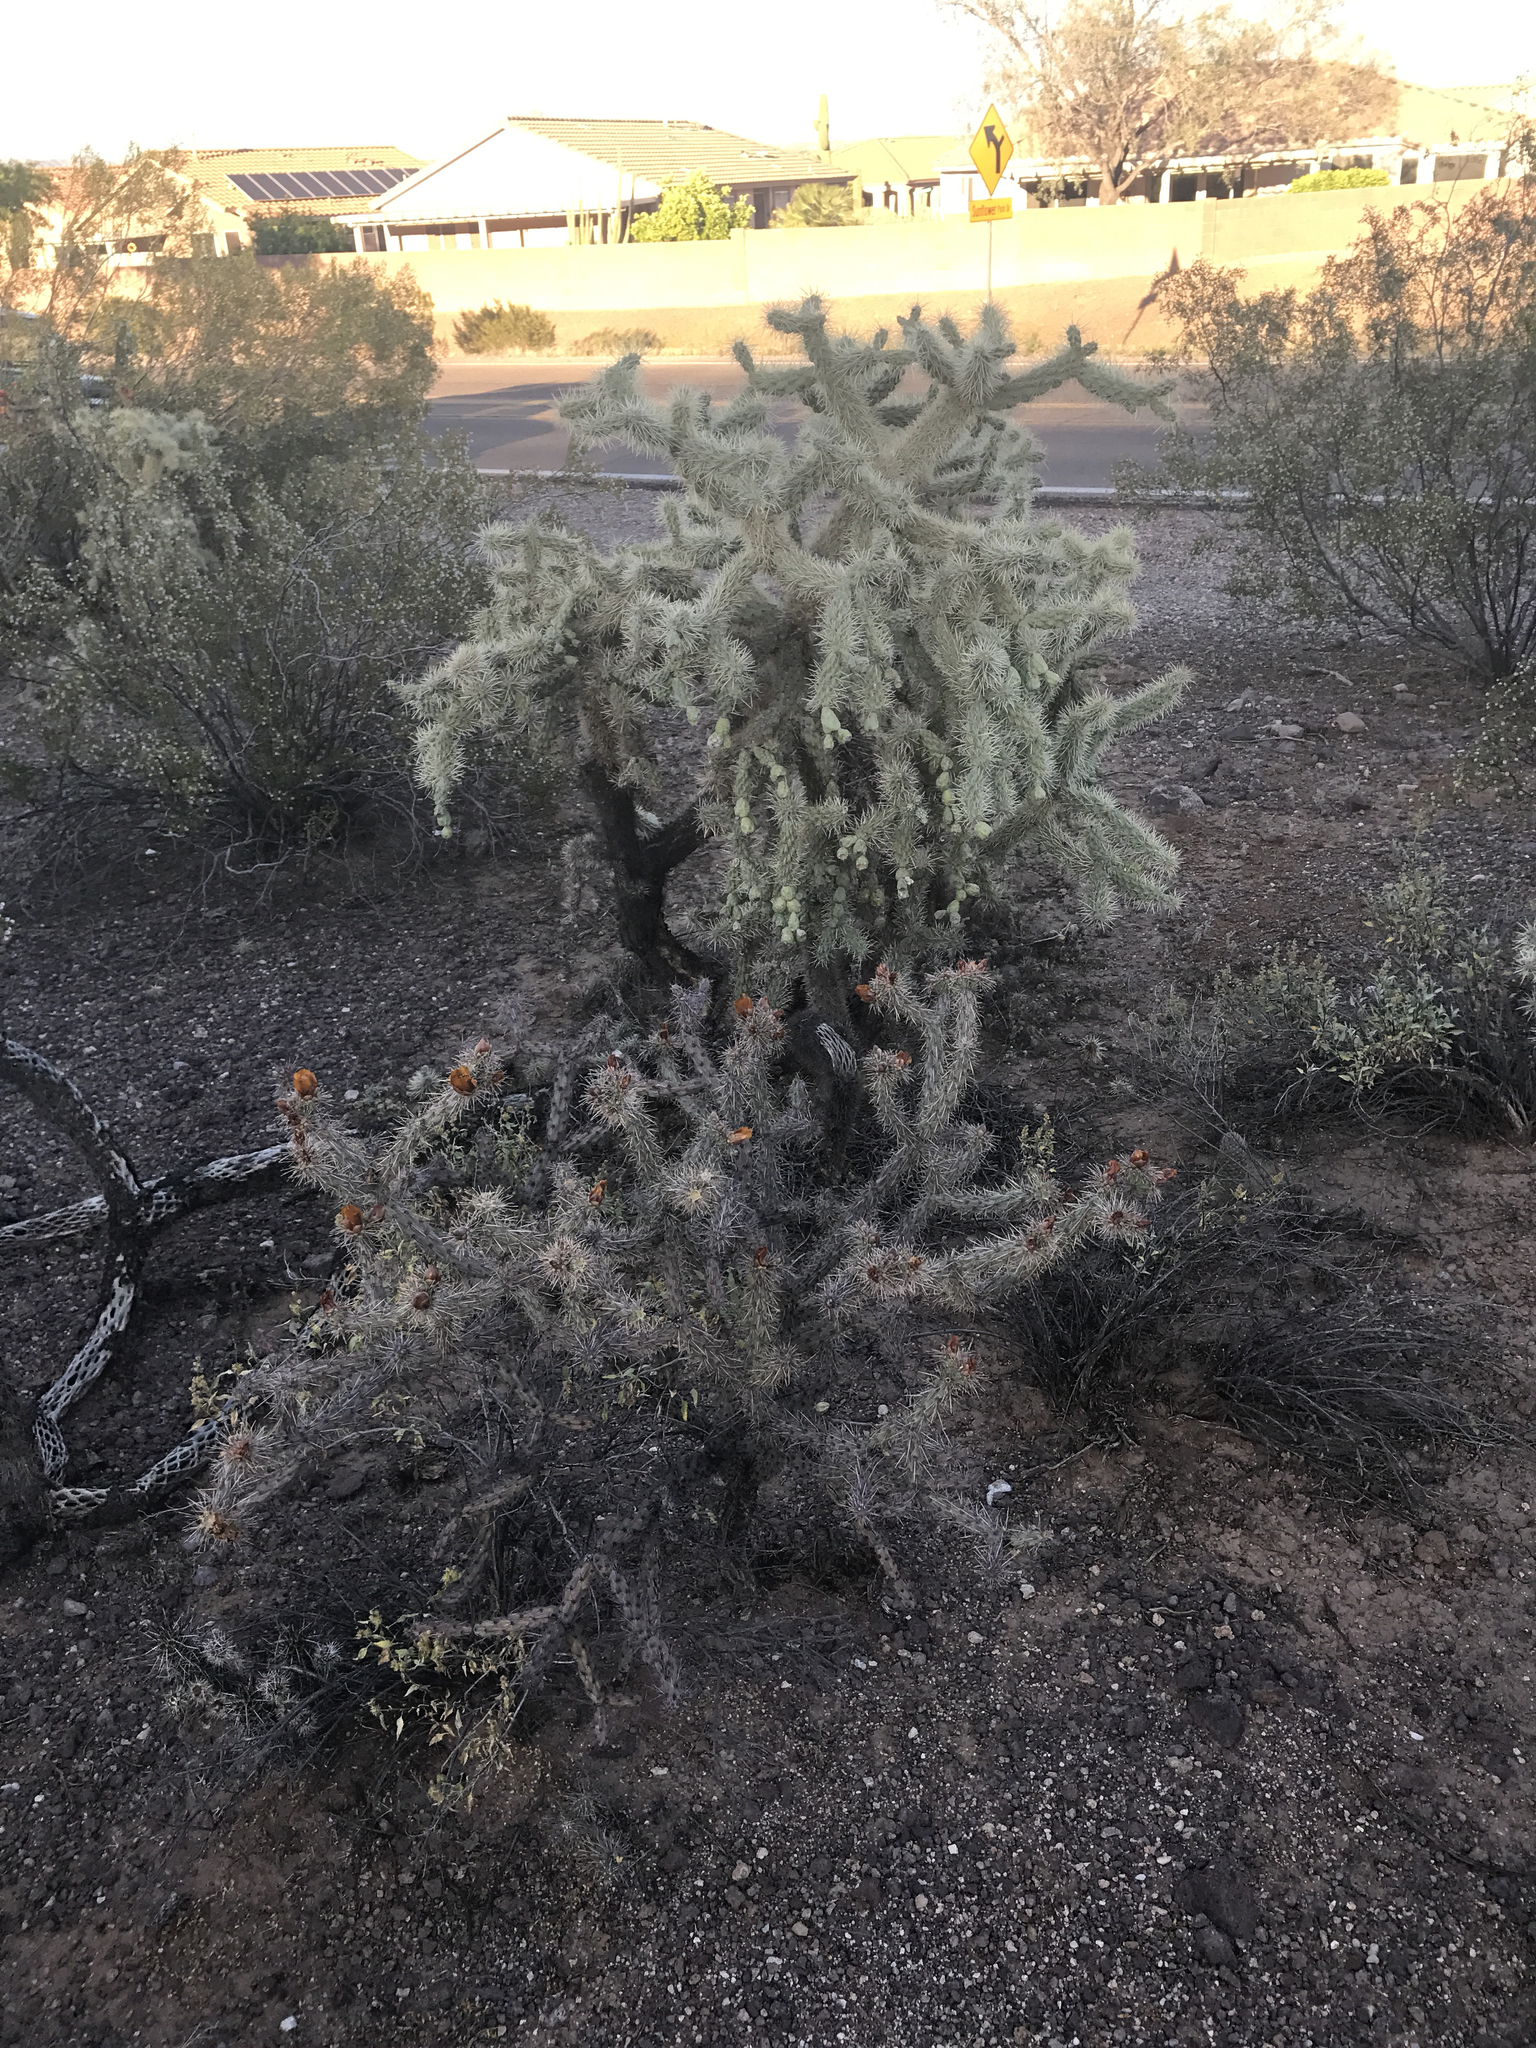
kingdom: Plantae
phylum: Tracheophyta
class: Magnoliopsida
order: Caryophyllales
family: Cactaceae
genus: Cylindropuntia
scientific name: Cylindropuntia fulgida
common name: Jumping cholla
